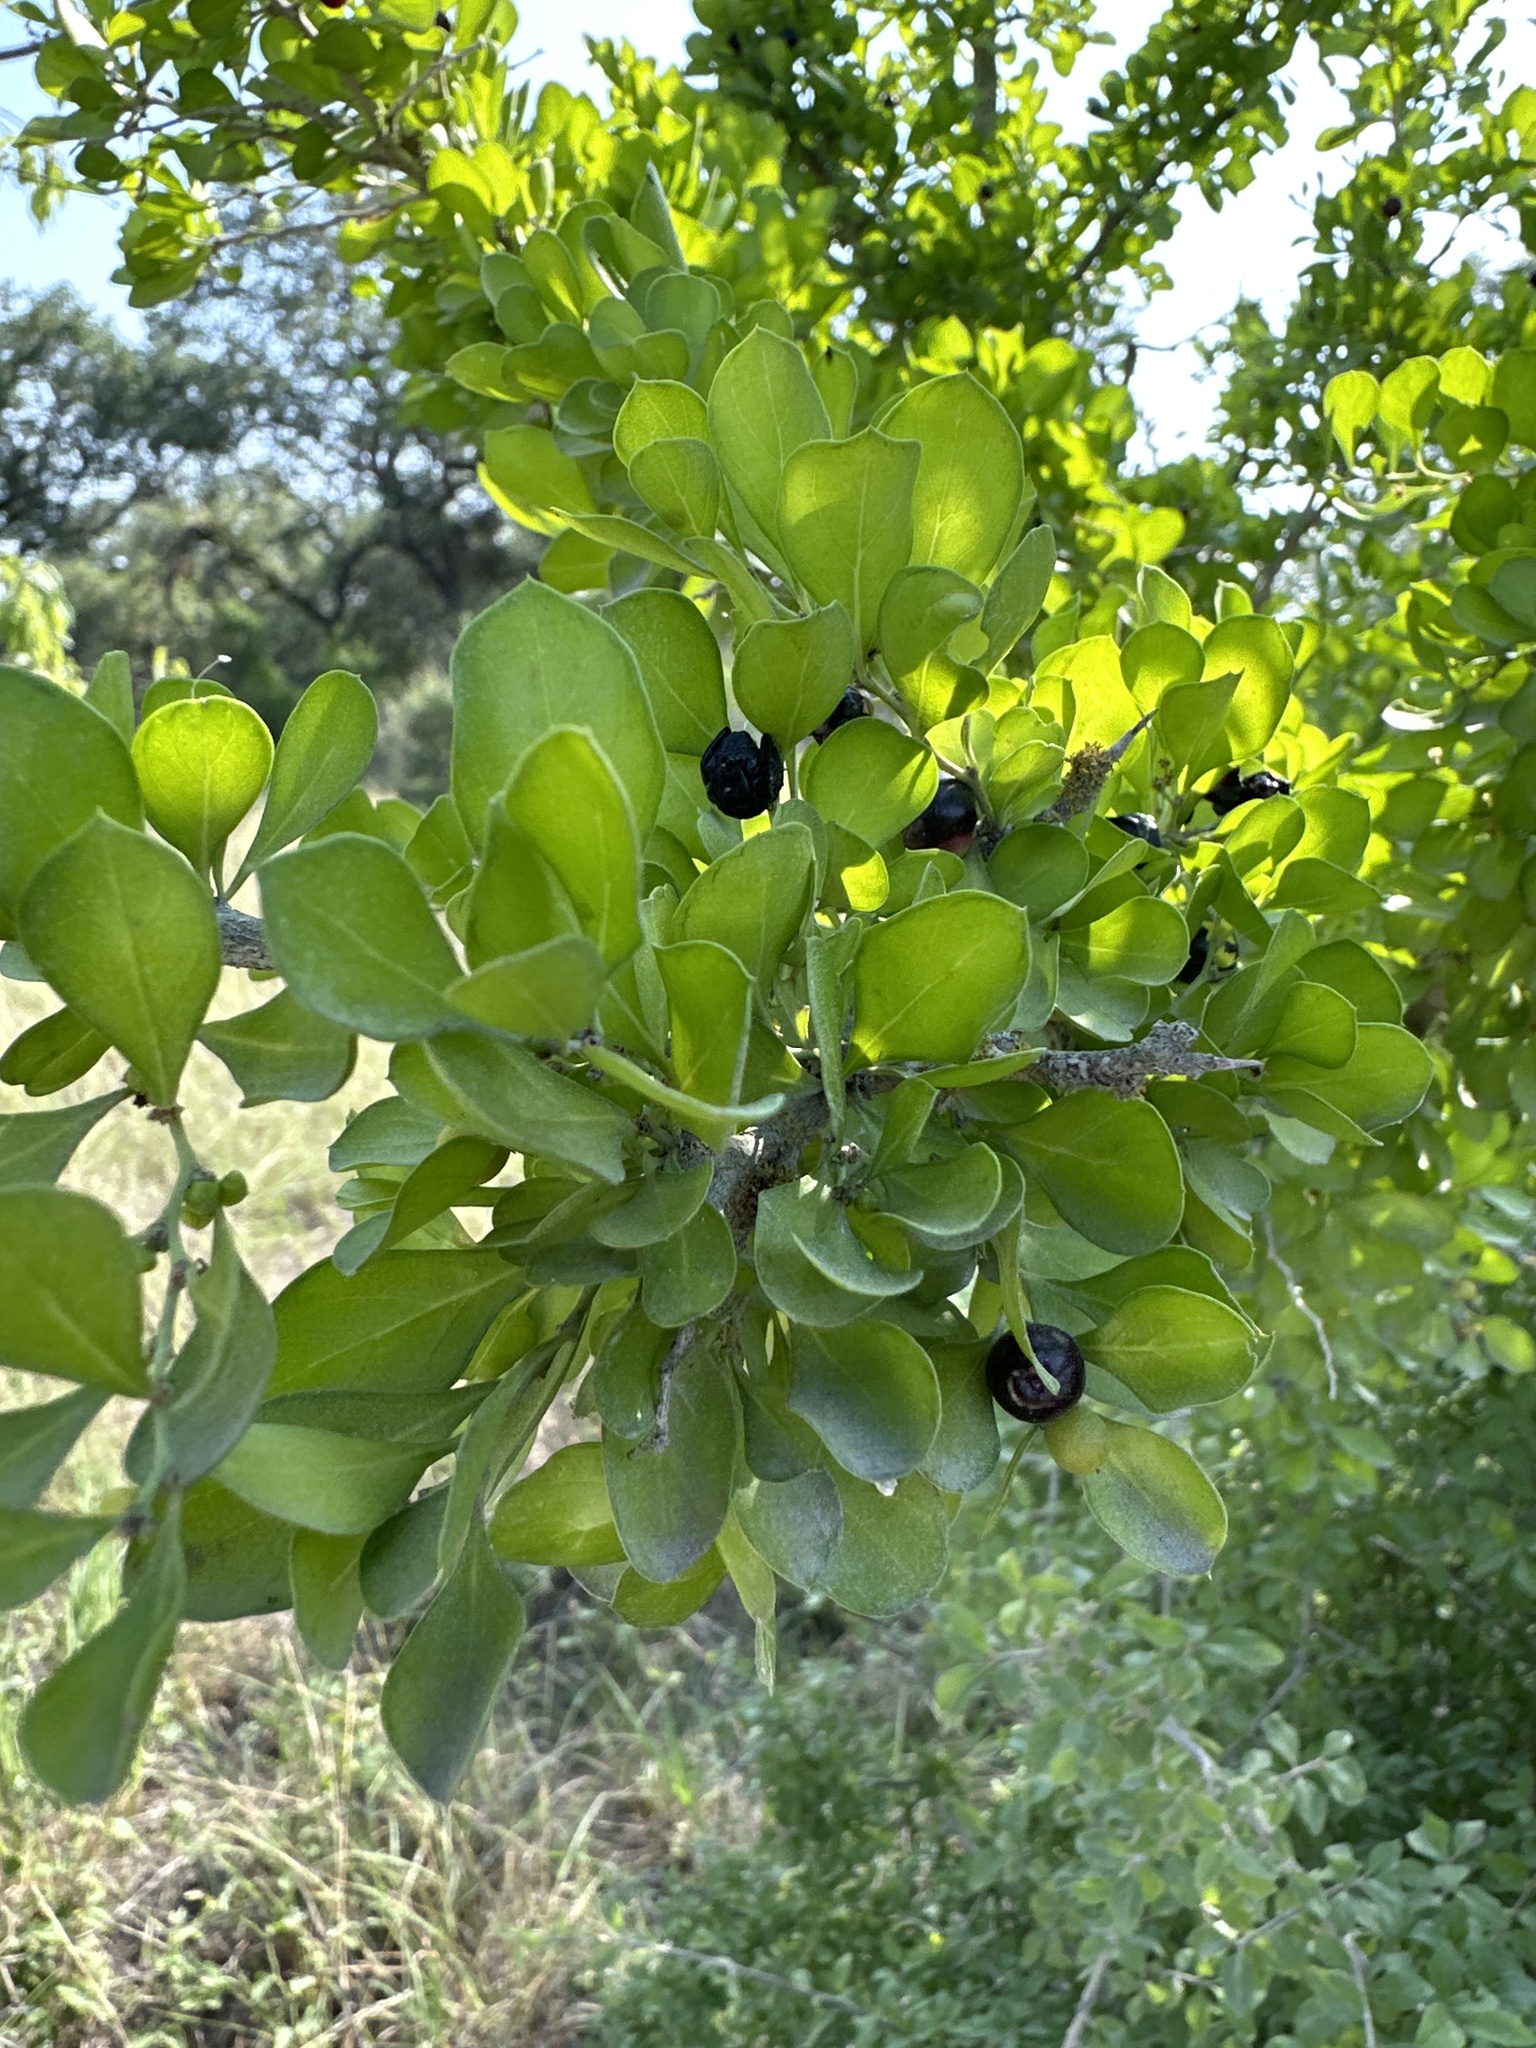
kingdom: Plantae
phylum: Tracheophyta
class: Magnoliopsida
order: Rosales
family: Rhamnaceae
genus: Condalia
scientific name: Condalia hookeri
